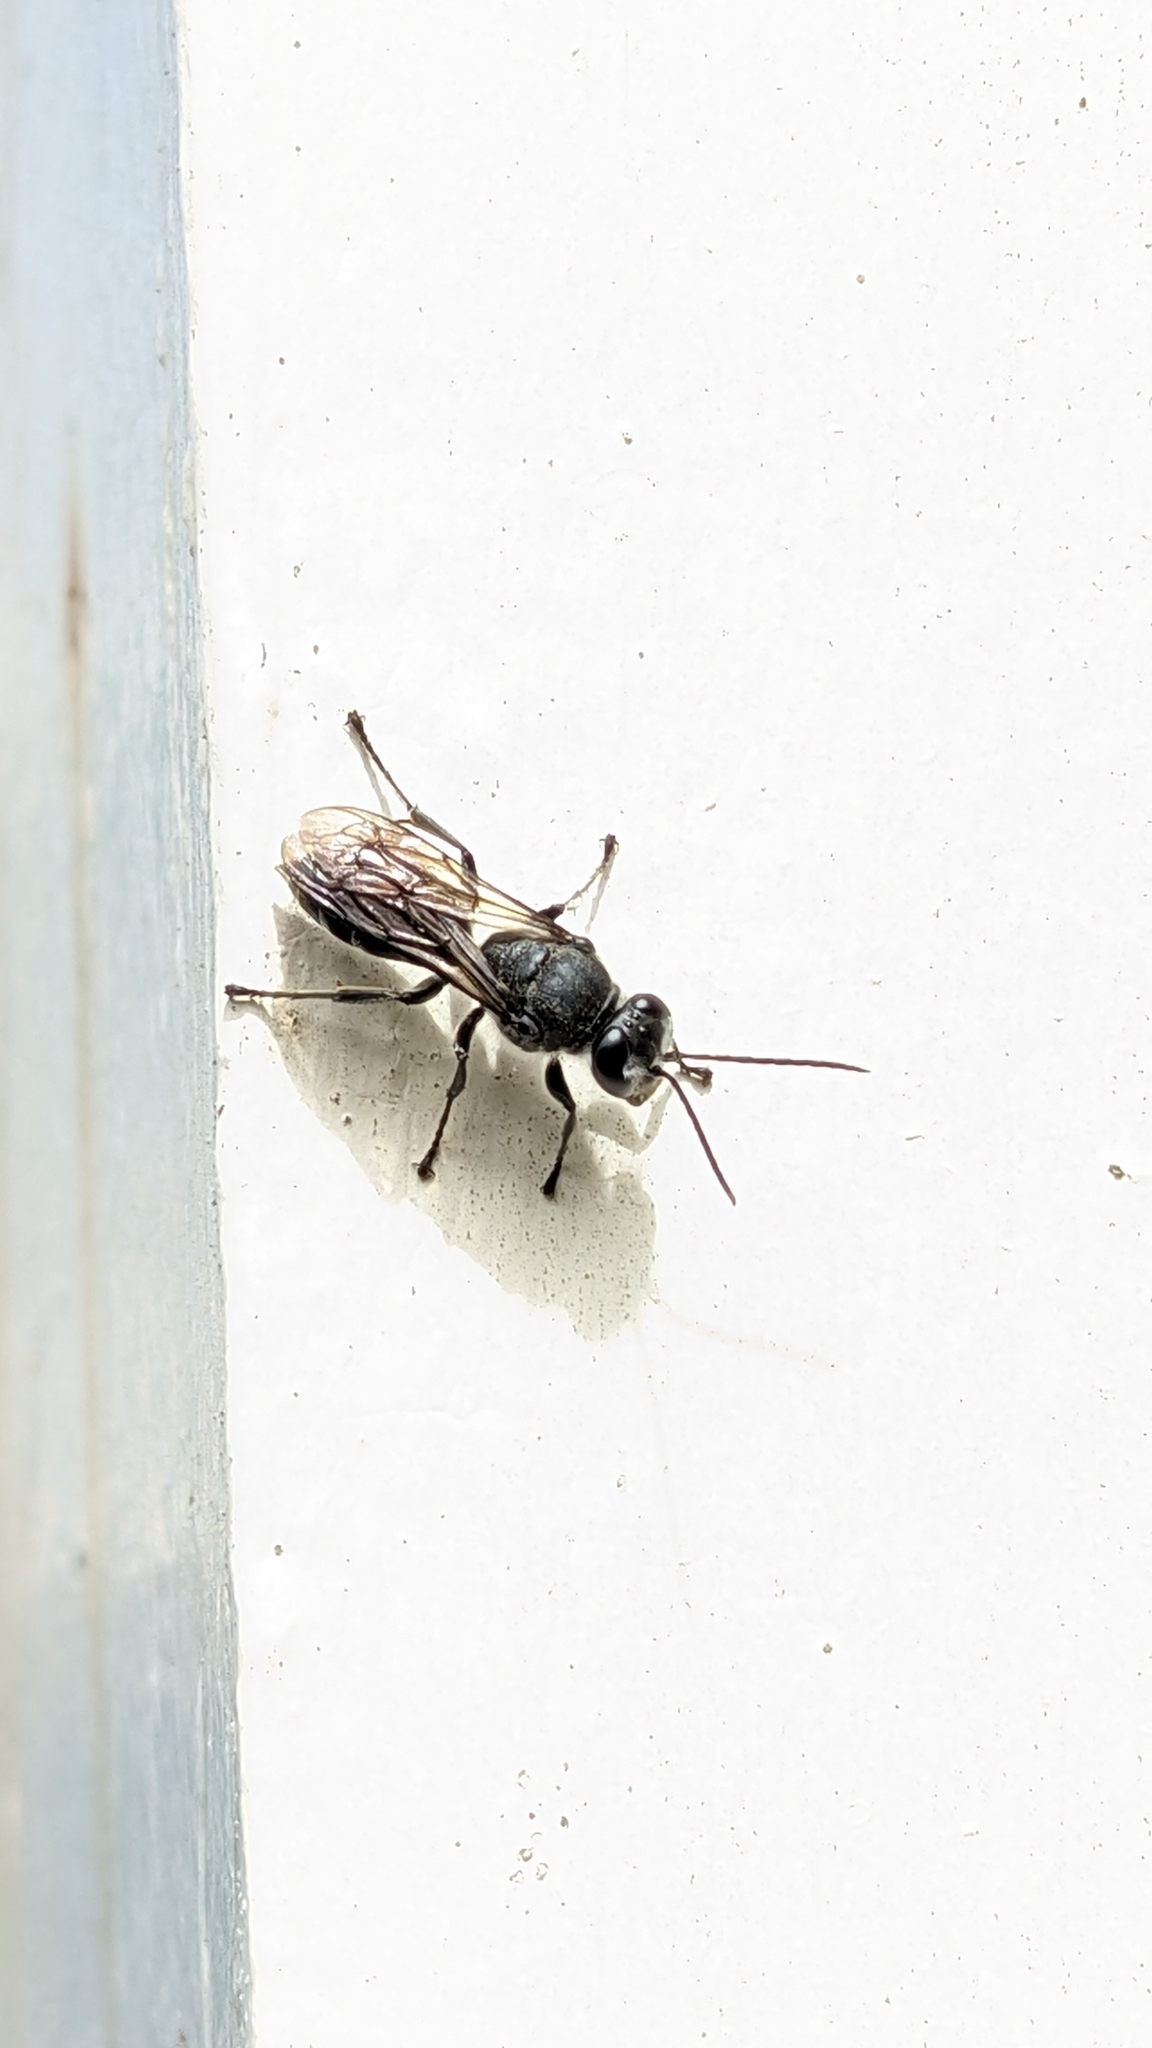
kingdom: Animalia
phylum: Arthropoda
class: Insecta
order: Hymenoptera
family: Crabronidae
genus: Pison
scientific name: Pison spinolae
